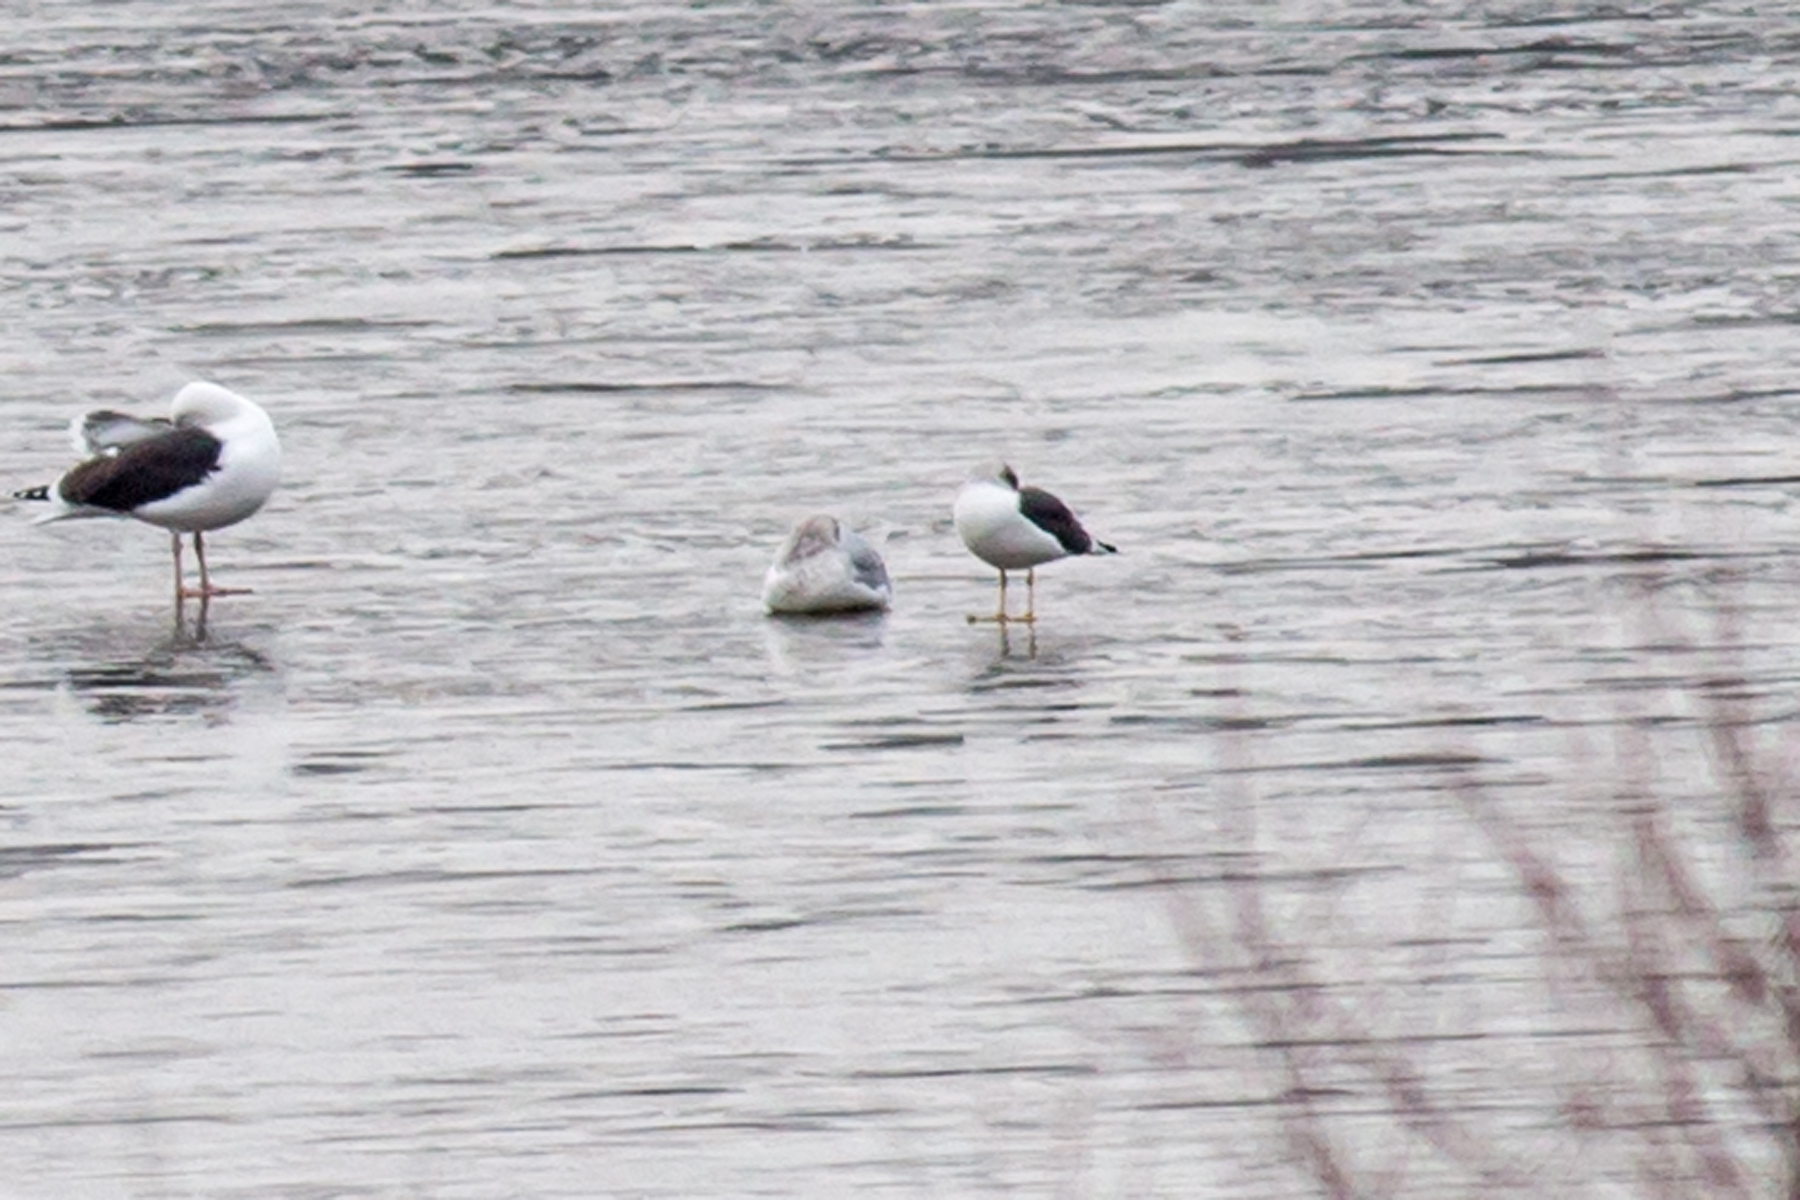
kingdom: Animalia
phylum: Chordata
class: Aves
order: Charadriiformes
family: Laridae
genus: Larus
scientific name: Larus fuscus
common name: Lesser black-backed gull
